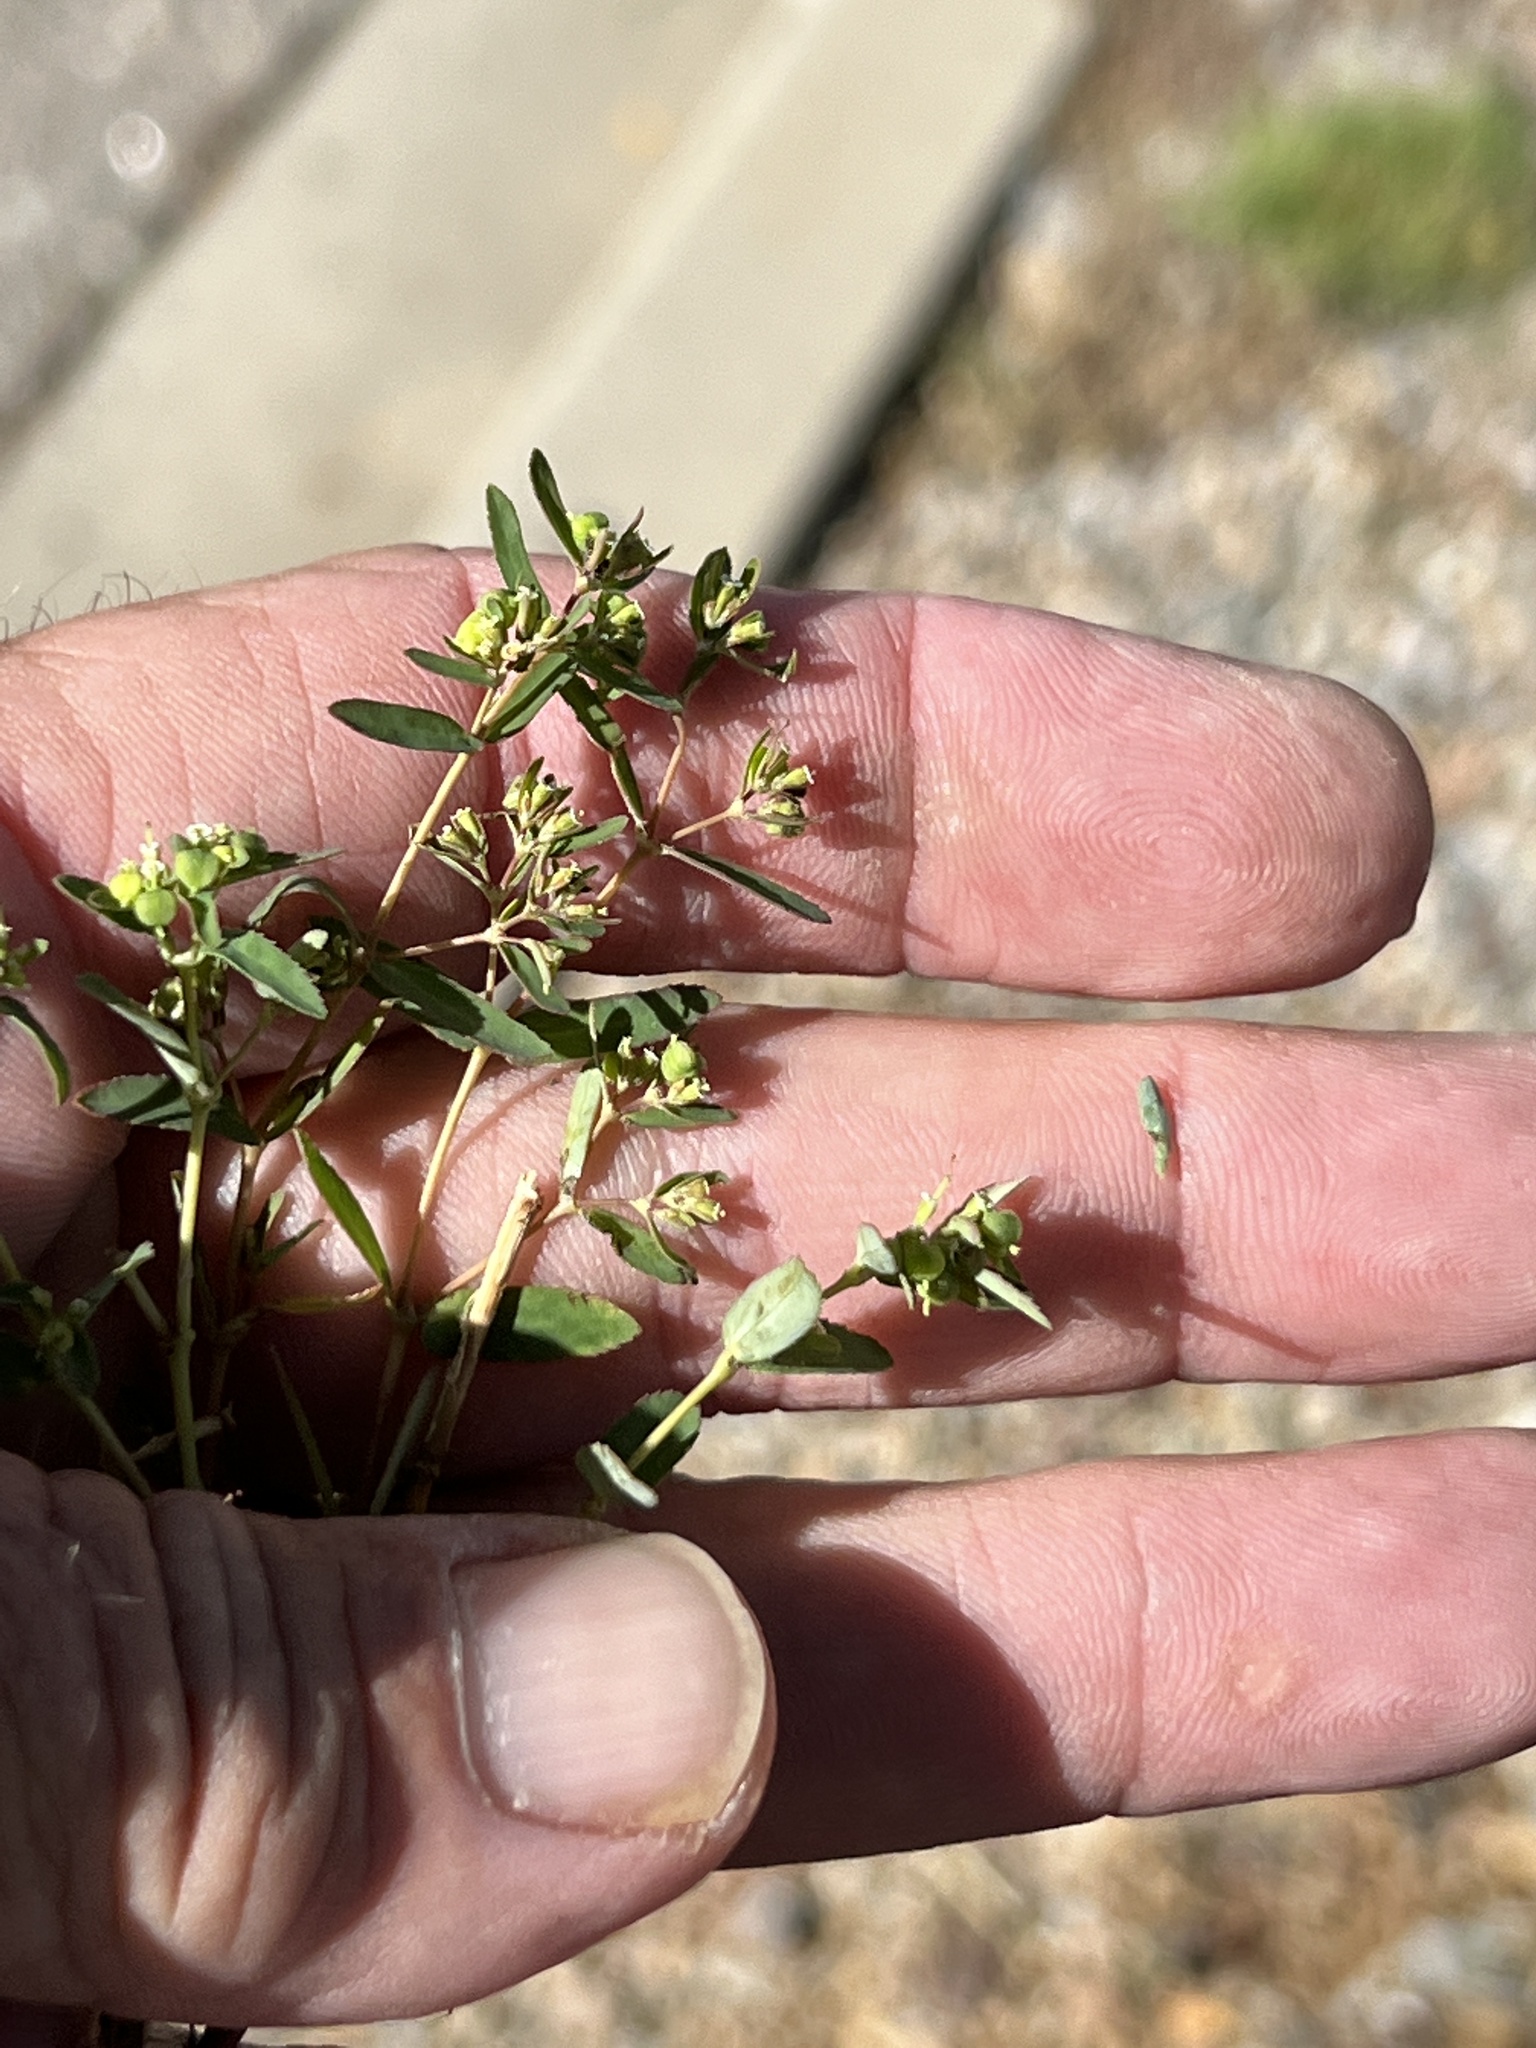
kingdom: Plantae
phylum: Tracheophyta
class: Magnoliopsida
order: Malpighiales
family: Euphorbiaceae
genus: Euphorbia
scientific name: Euphorbia hyssopifolia
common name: Hyssopleaf sandmat
